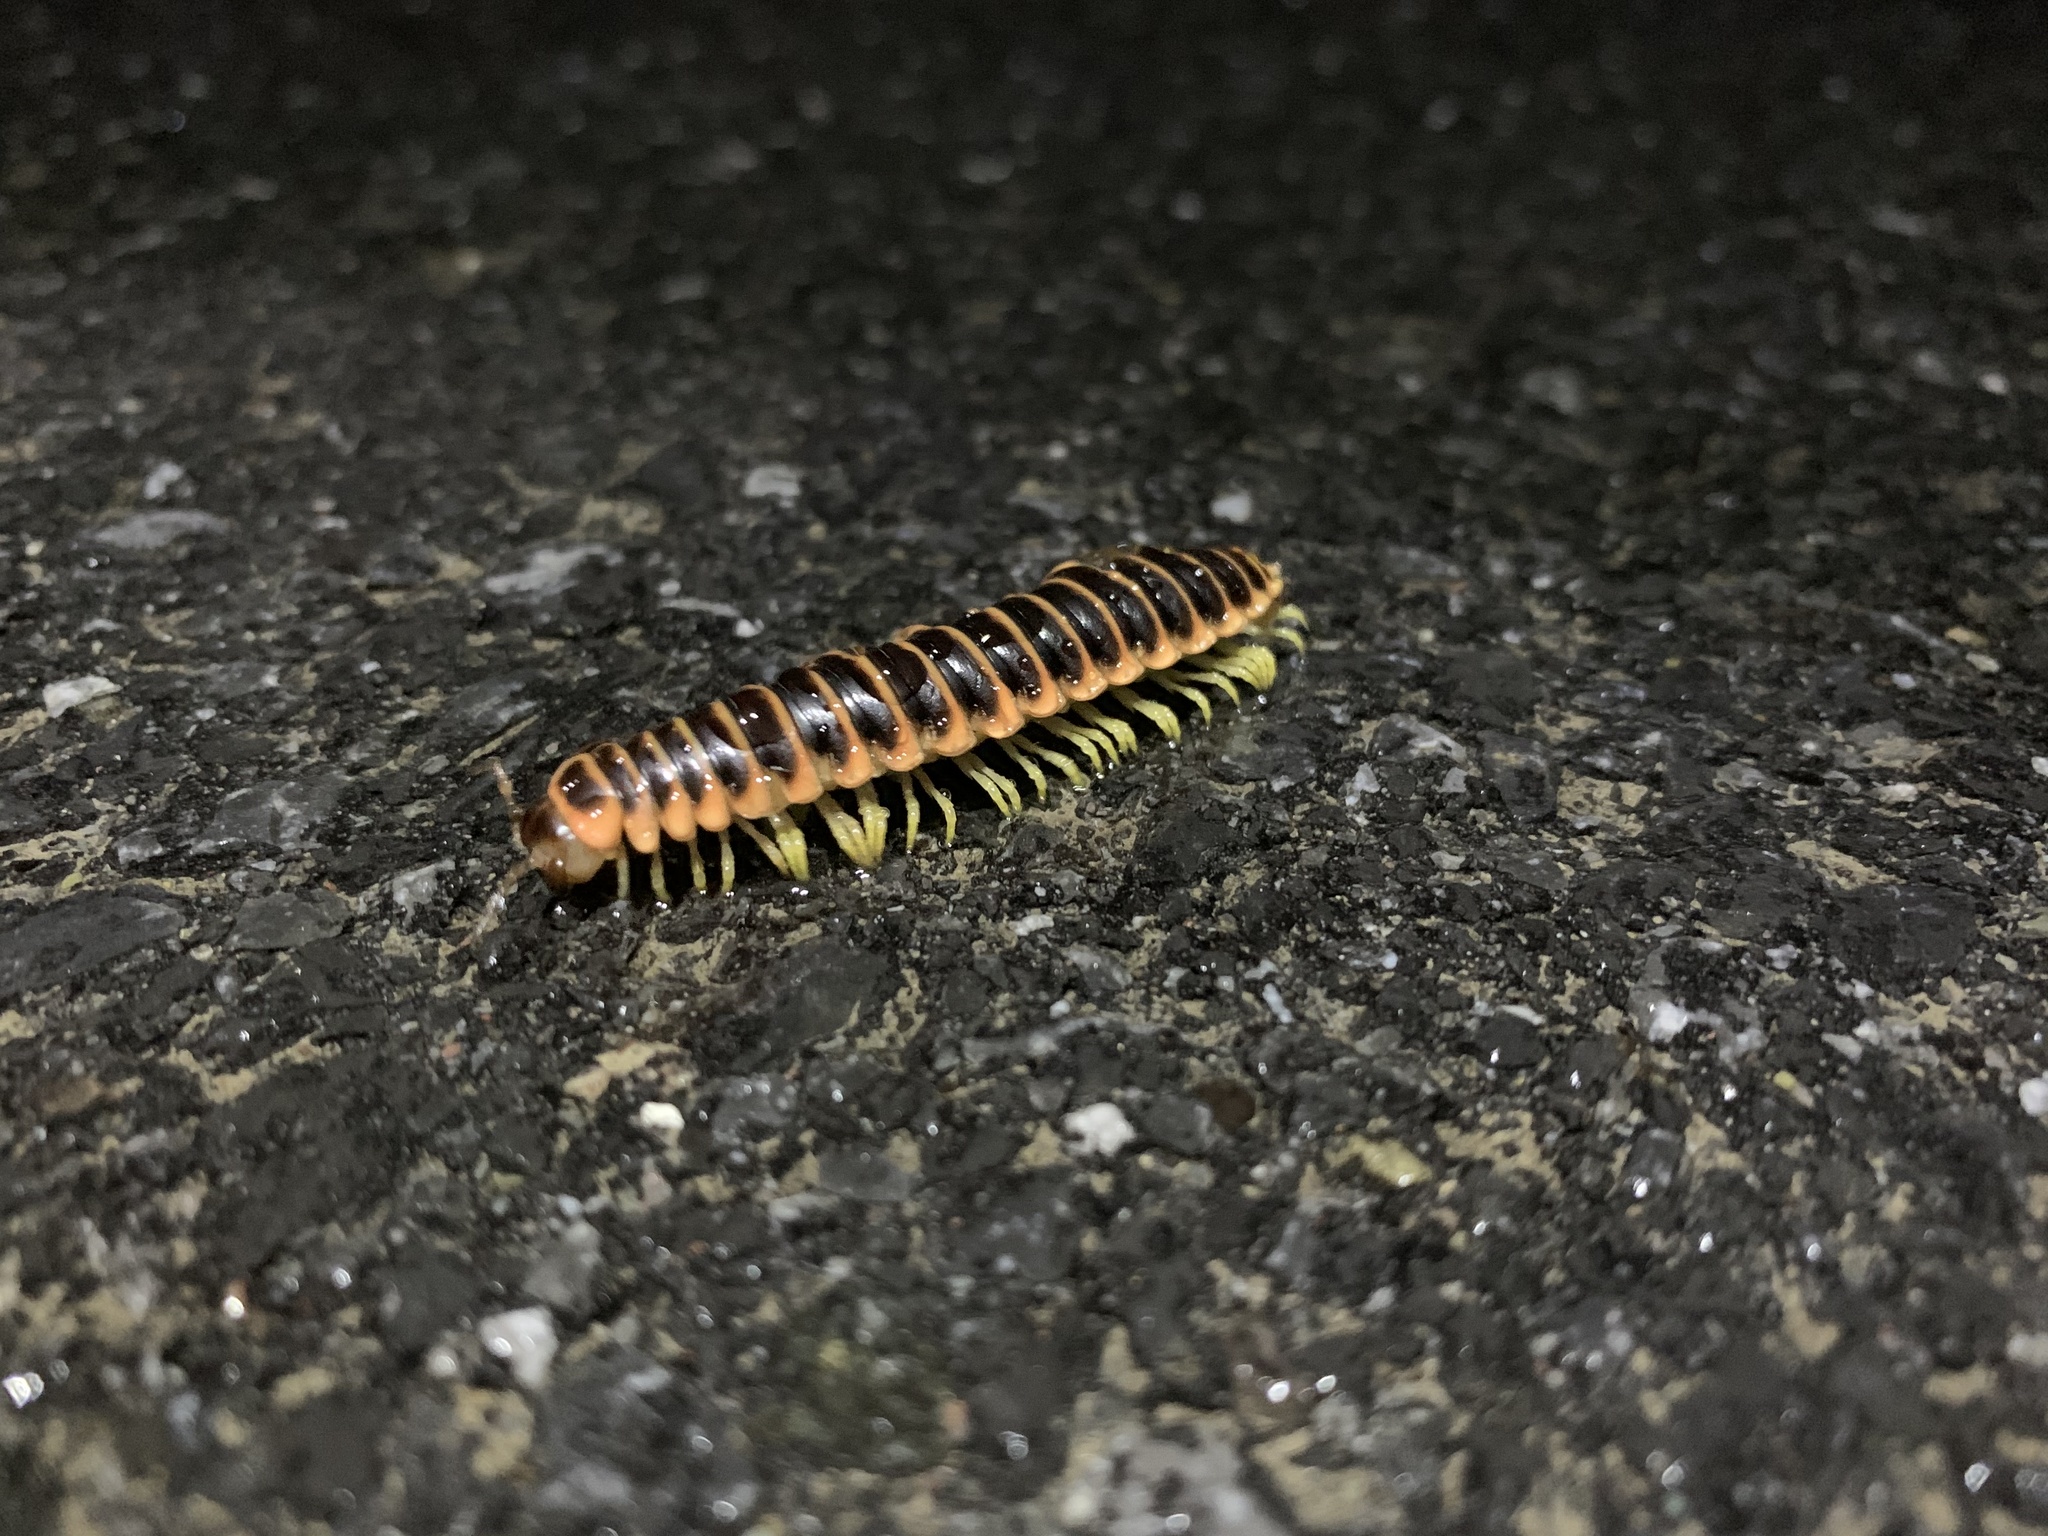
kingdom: Animalia
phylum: Arthropoda
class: Diplopoda
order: Polydesmida
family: Xystodesmidae
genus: Apheloria
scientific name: Apheloria virginiensis
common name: Black-and-gold flat millipede
